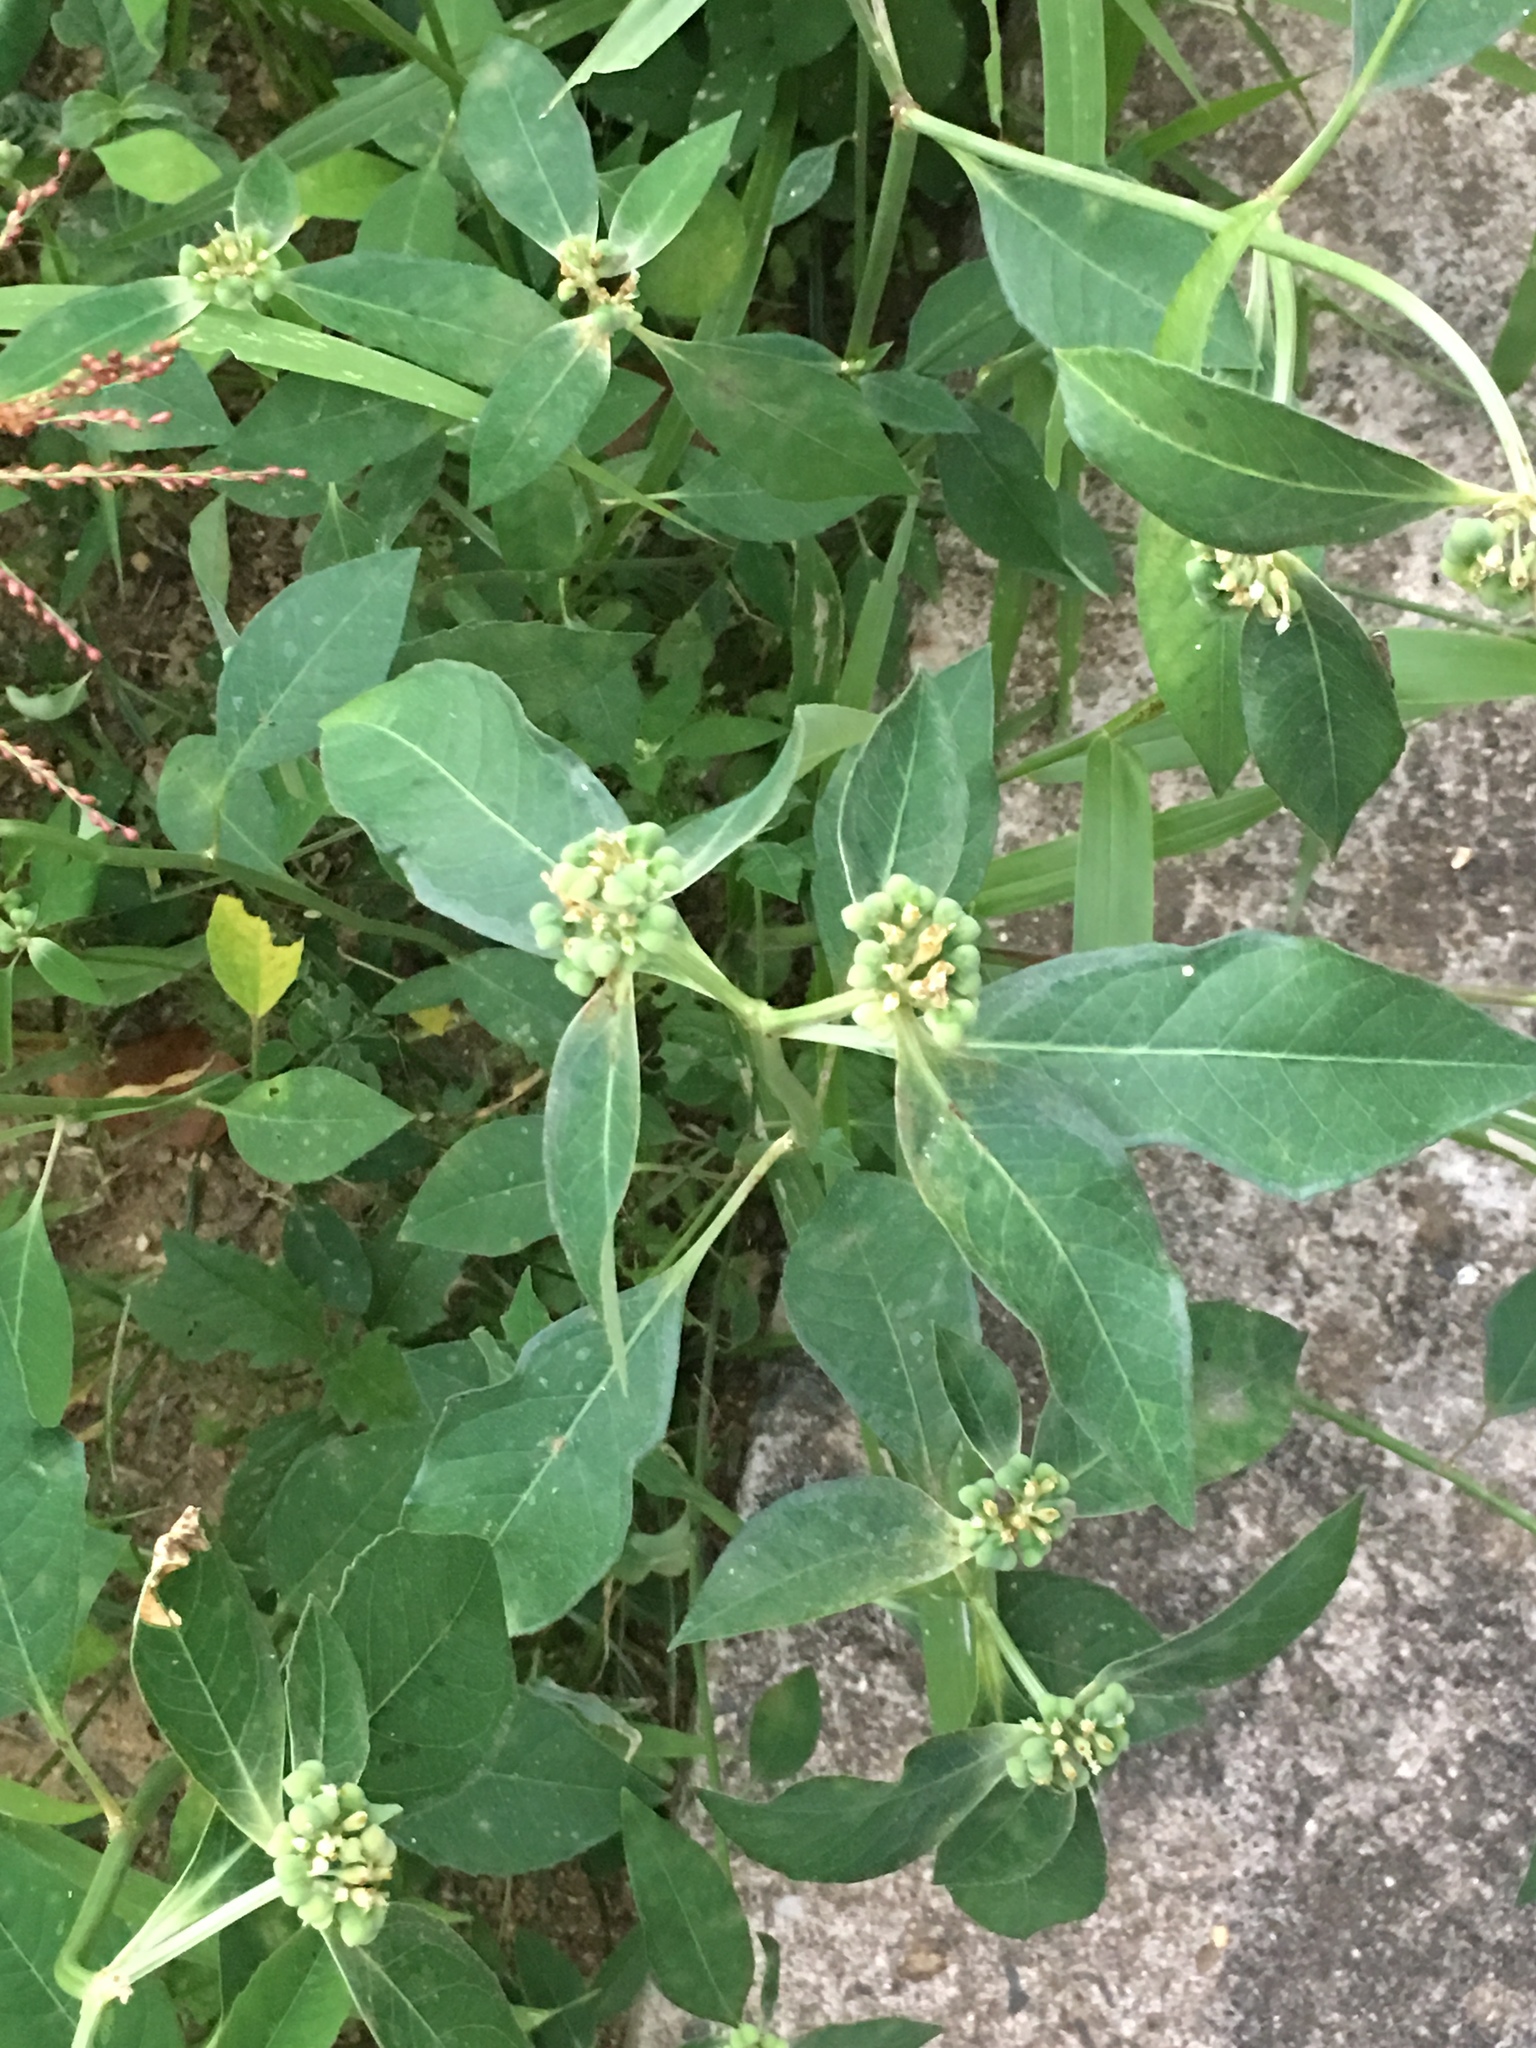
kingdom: Plantae
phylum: Tracheophyta
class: Magnoliopsida
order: Malpighiales
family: Euphorbiaceae
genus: Euphorbia
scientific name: Euphorbia heterophylla
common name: Mexican fireplant
